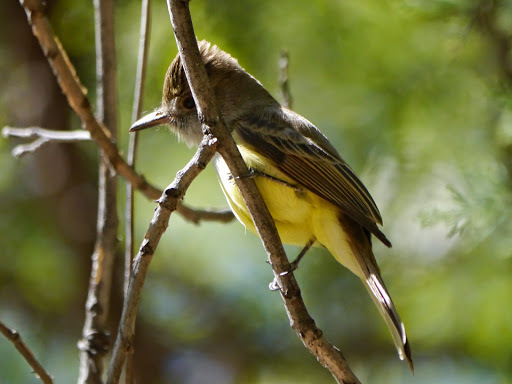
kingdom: Animalia
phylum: Chordata
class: Aves
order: Passeriformes
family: Tyrannidae
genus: Myiarchus
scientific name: Myiarchus tuberculifer
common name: Dusky-capped flycatcher
